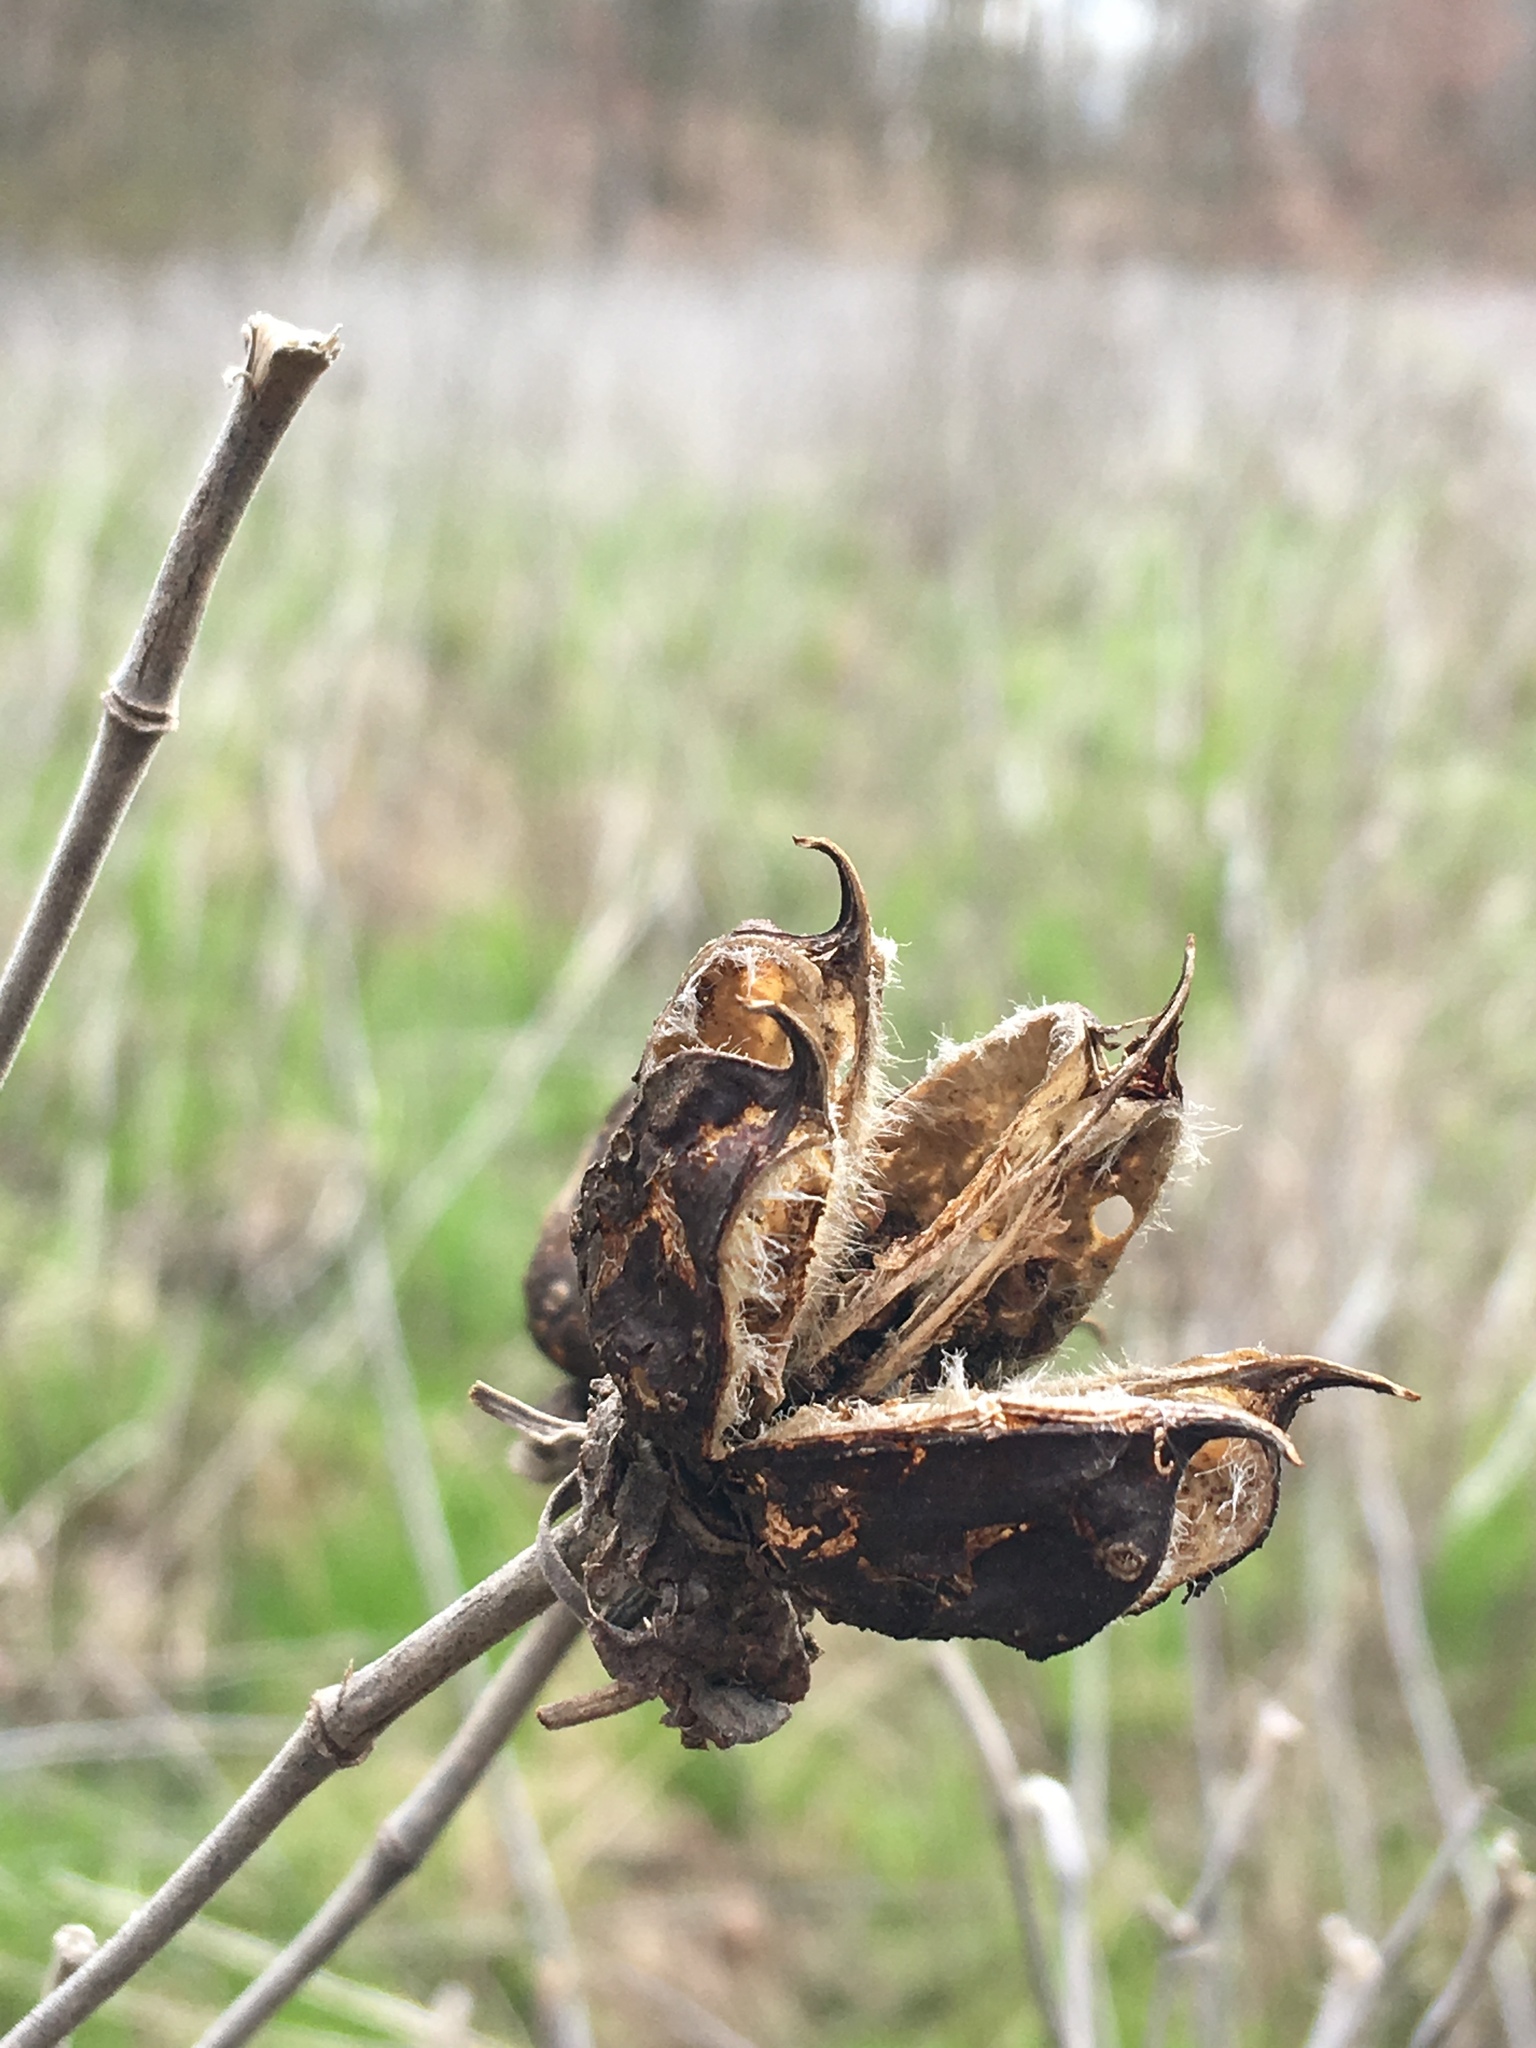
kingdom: Plantae
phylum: Tracheophyta
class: Magnoliopsida
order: Malvales
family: Malvaceae
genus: Hibiscus
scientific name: Hibiscus moscheutos
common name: Common rose-mallow
